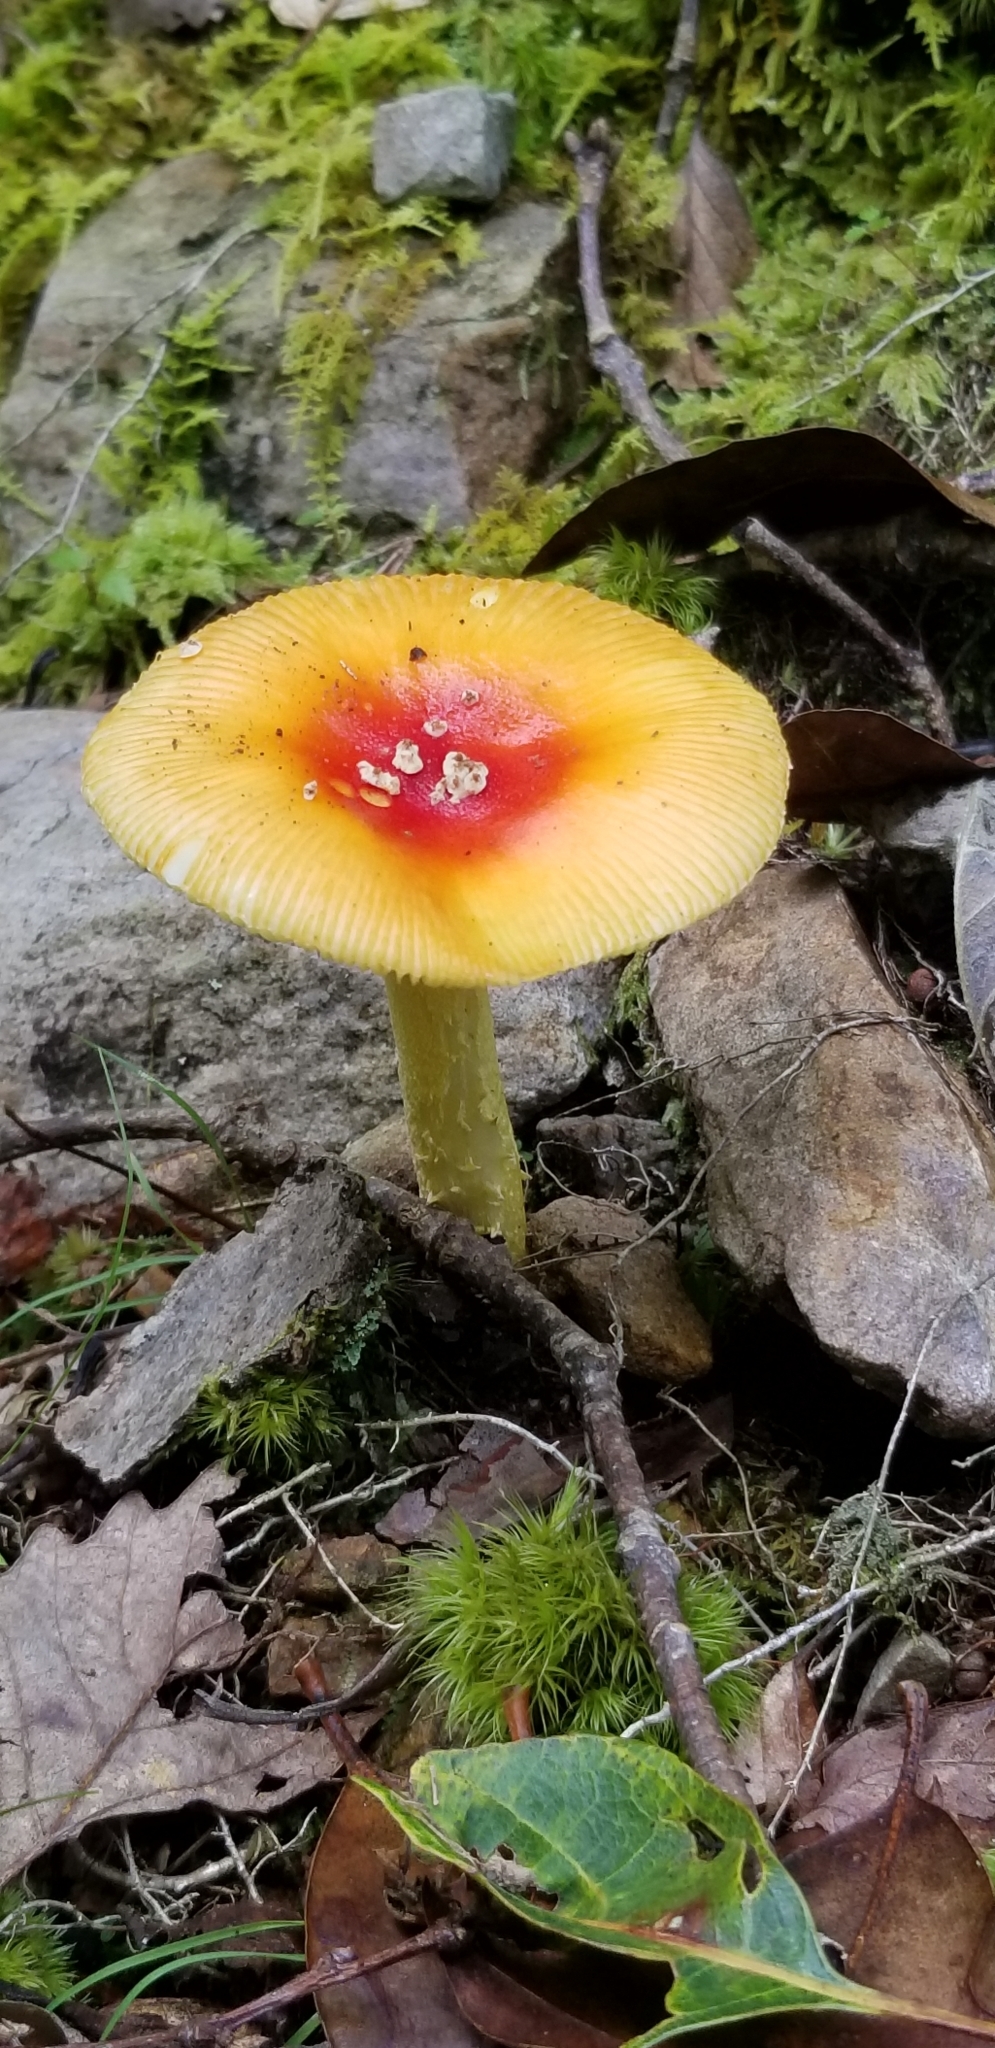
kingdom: Fungi
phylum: Basidiomycota
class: Agaricomycetes
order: Agaricales
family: Amanitaceae
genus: Amanita
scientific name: Amanita parcivolvata
